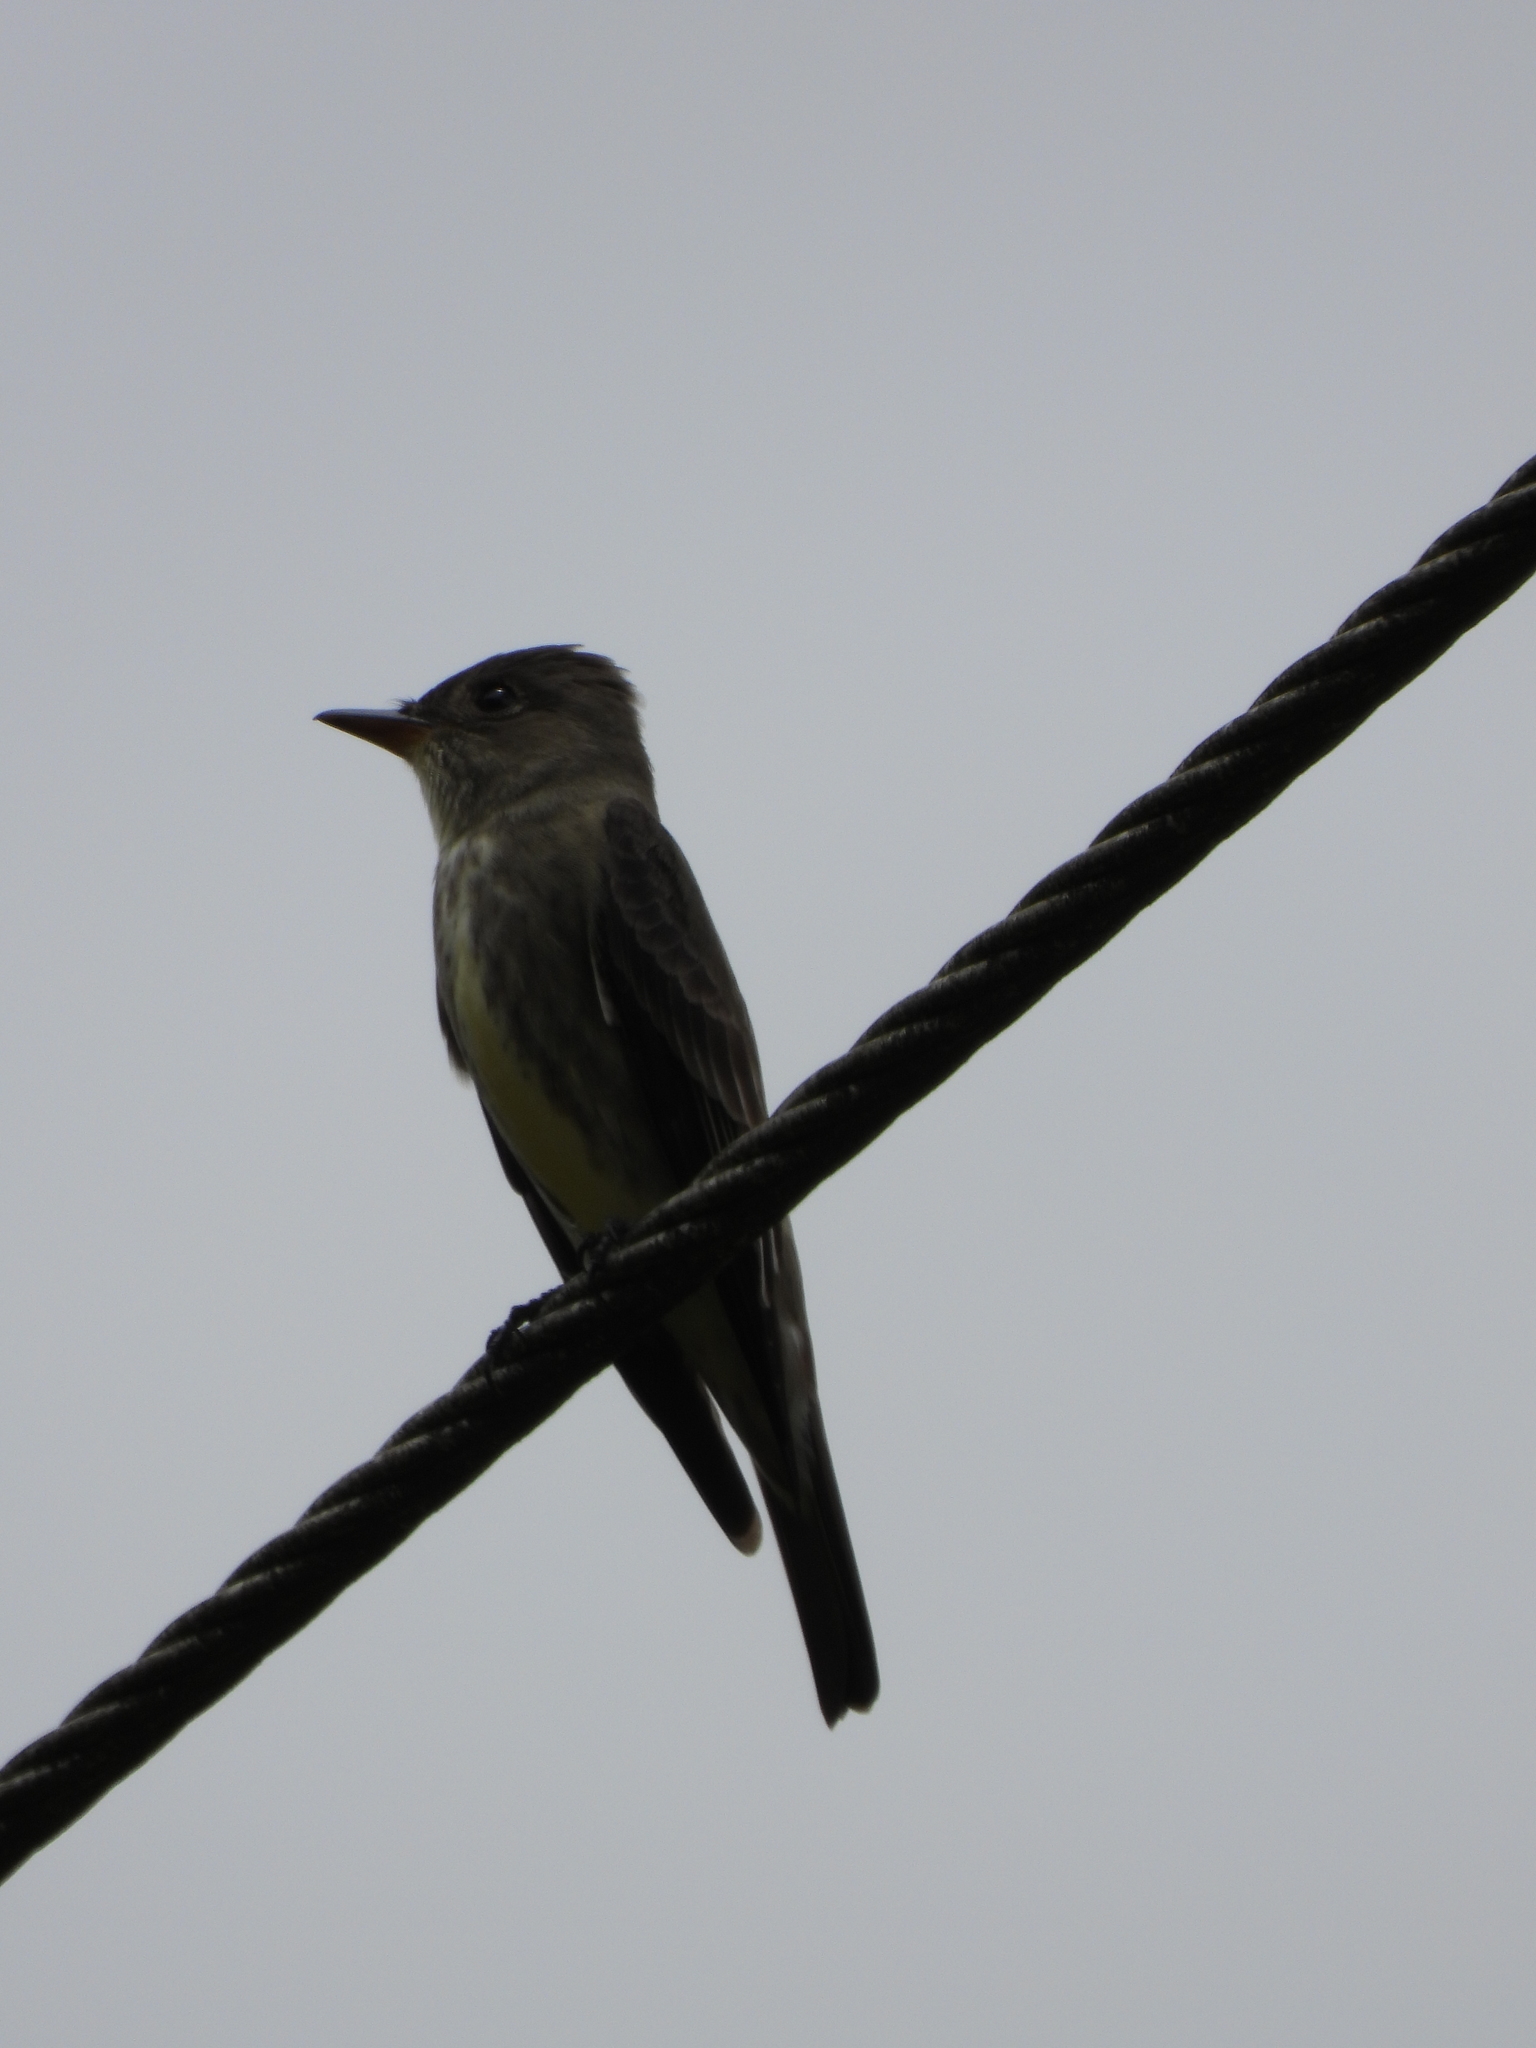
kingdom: Animalia
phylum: Chordata
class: Aves
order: Passeriformes
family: Tyrannidae
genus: Contopus
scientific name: Contopus cooperi
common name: Olive-sided flycatcher
